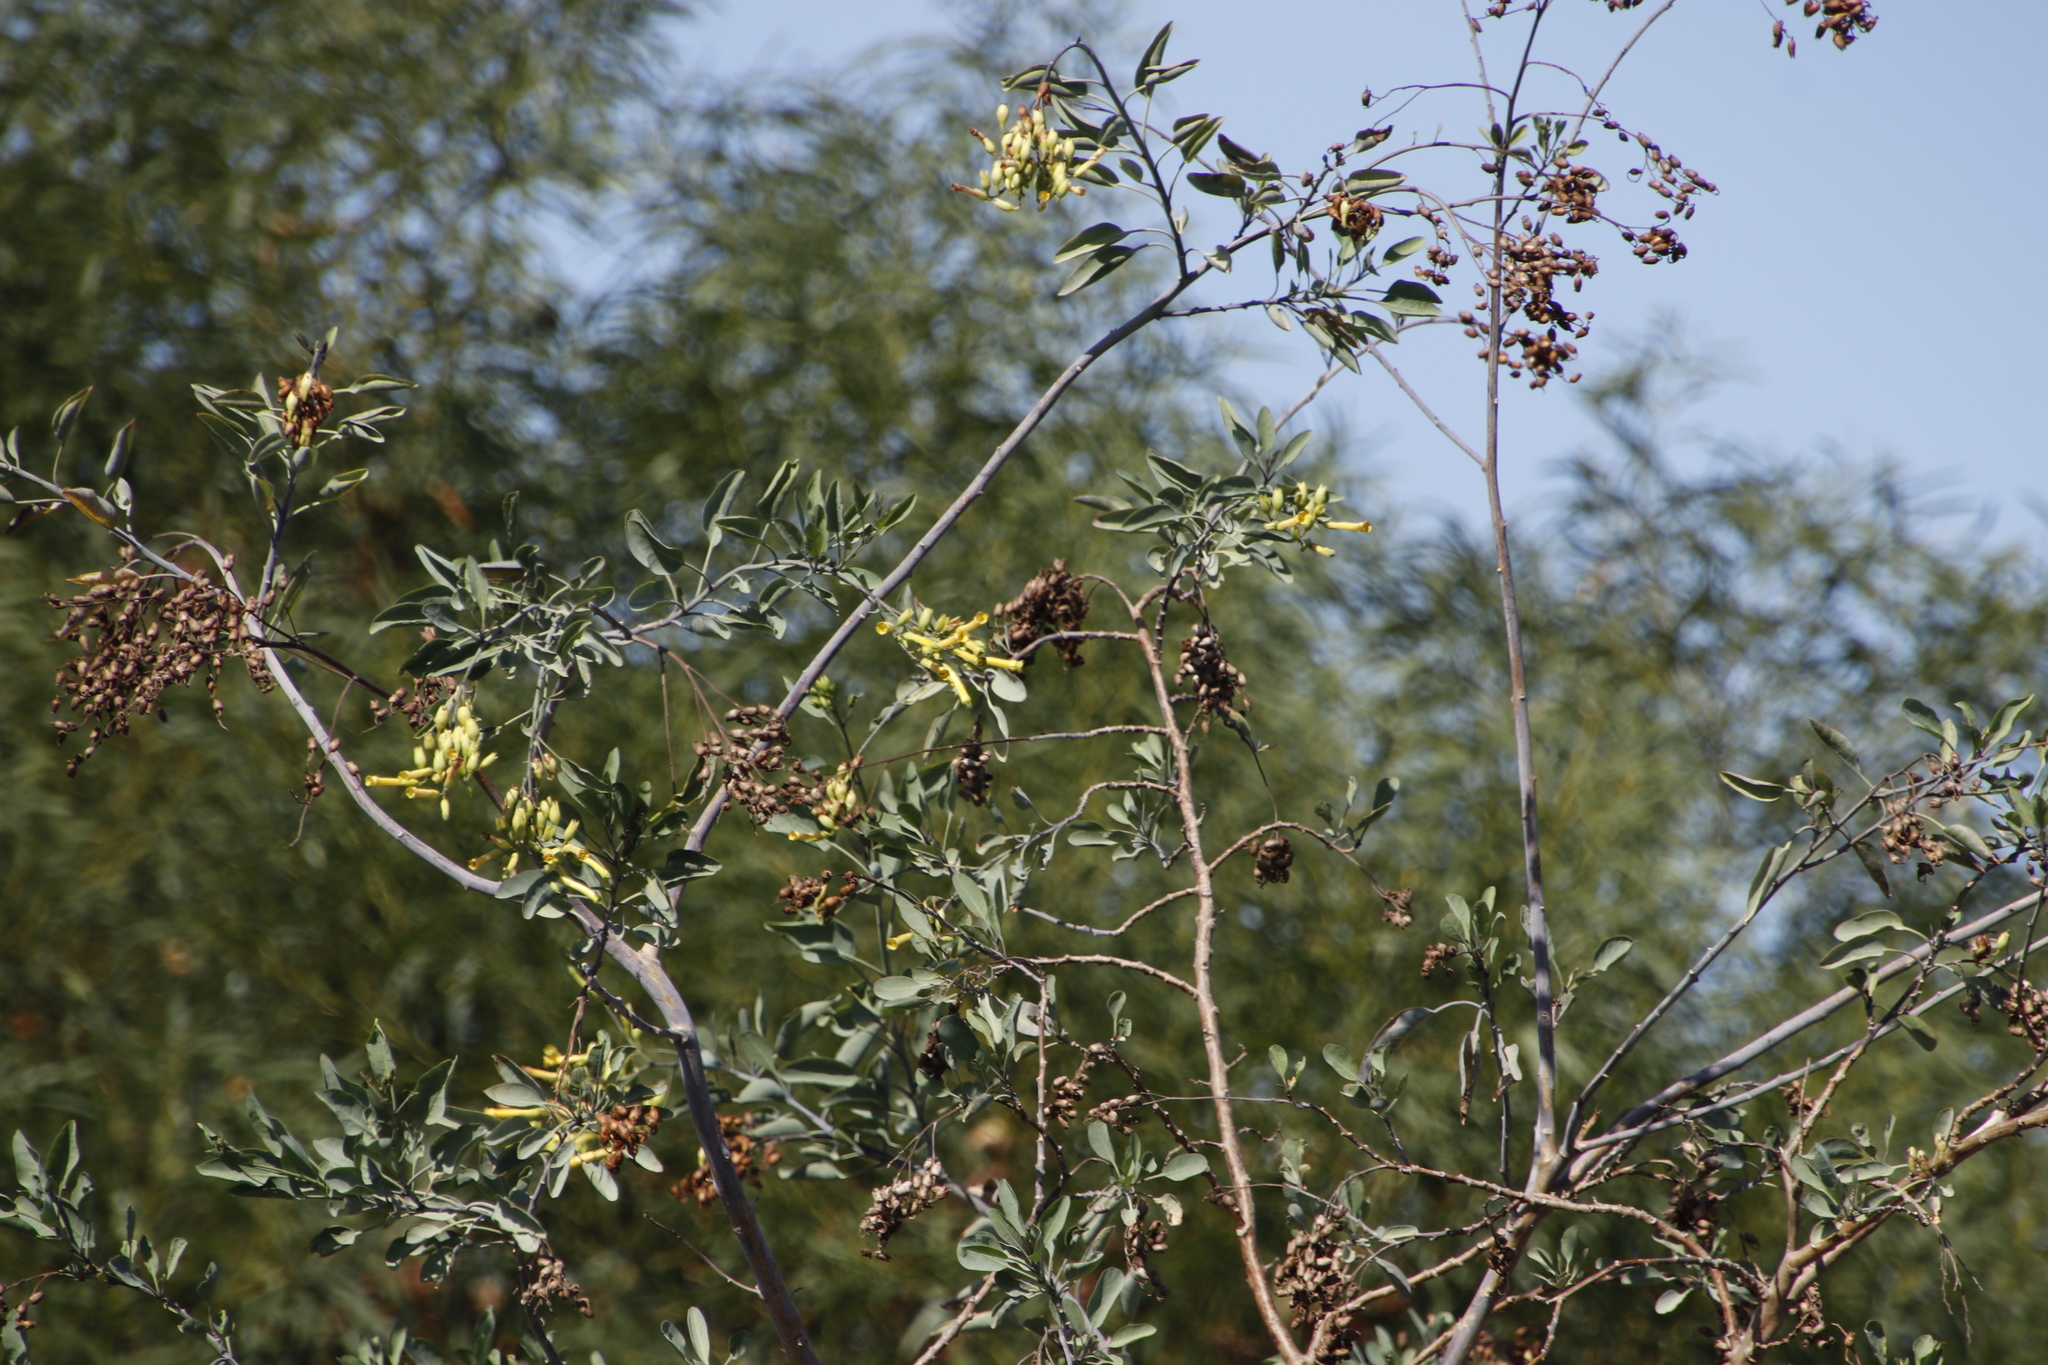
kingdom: Plantae
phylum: Tracheophyta
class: Magnoliopsida
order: Solanales
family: Solanaceae
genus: Nicotiana
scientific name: Nicotiana glauca
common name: Tree tobacco
